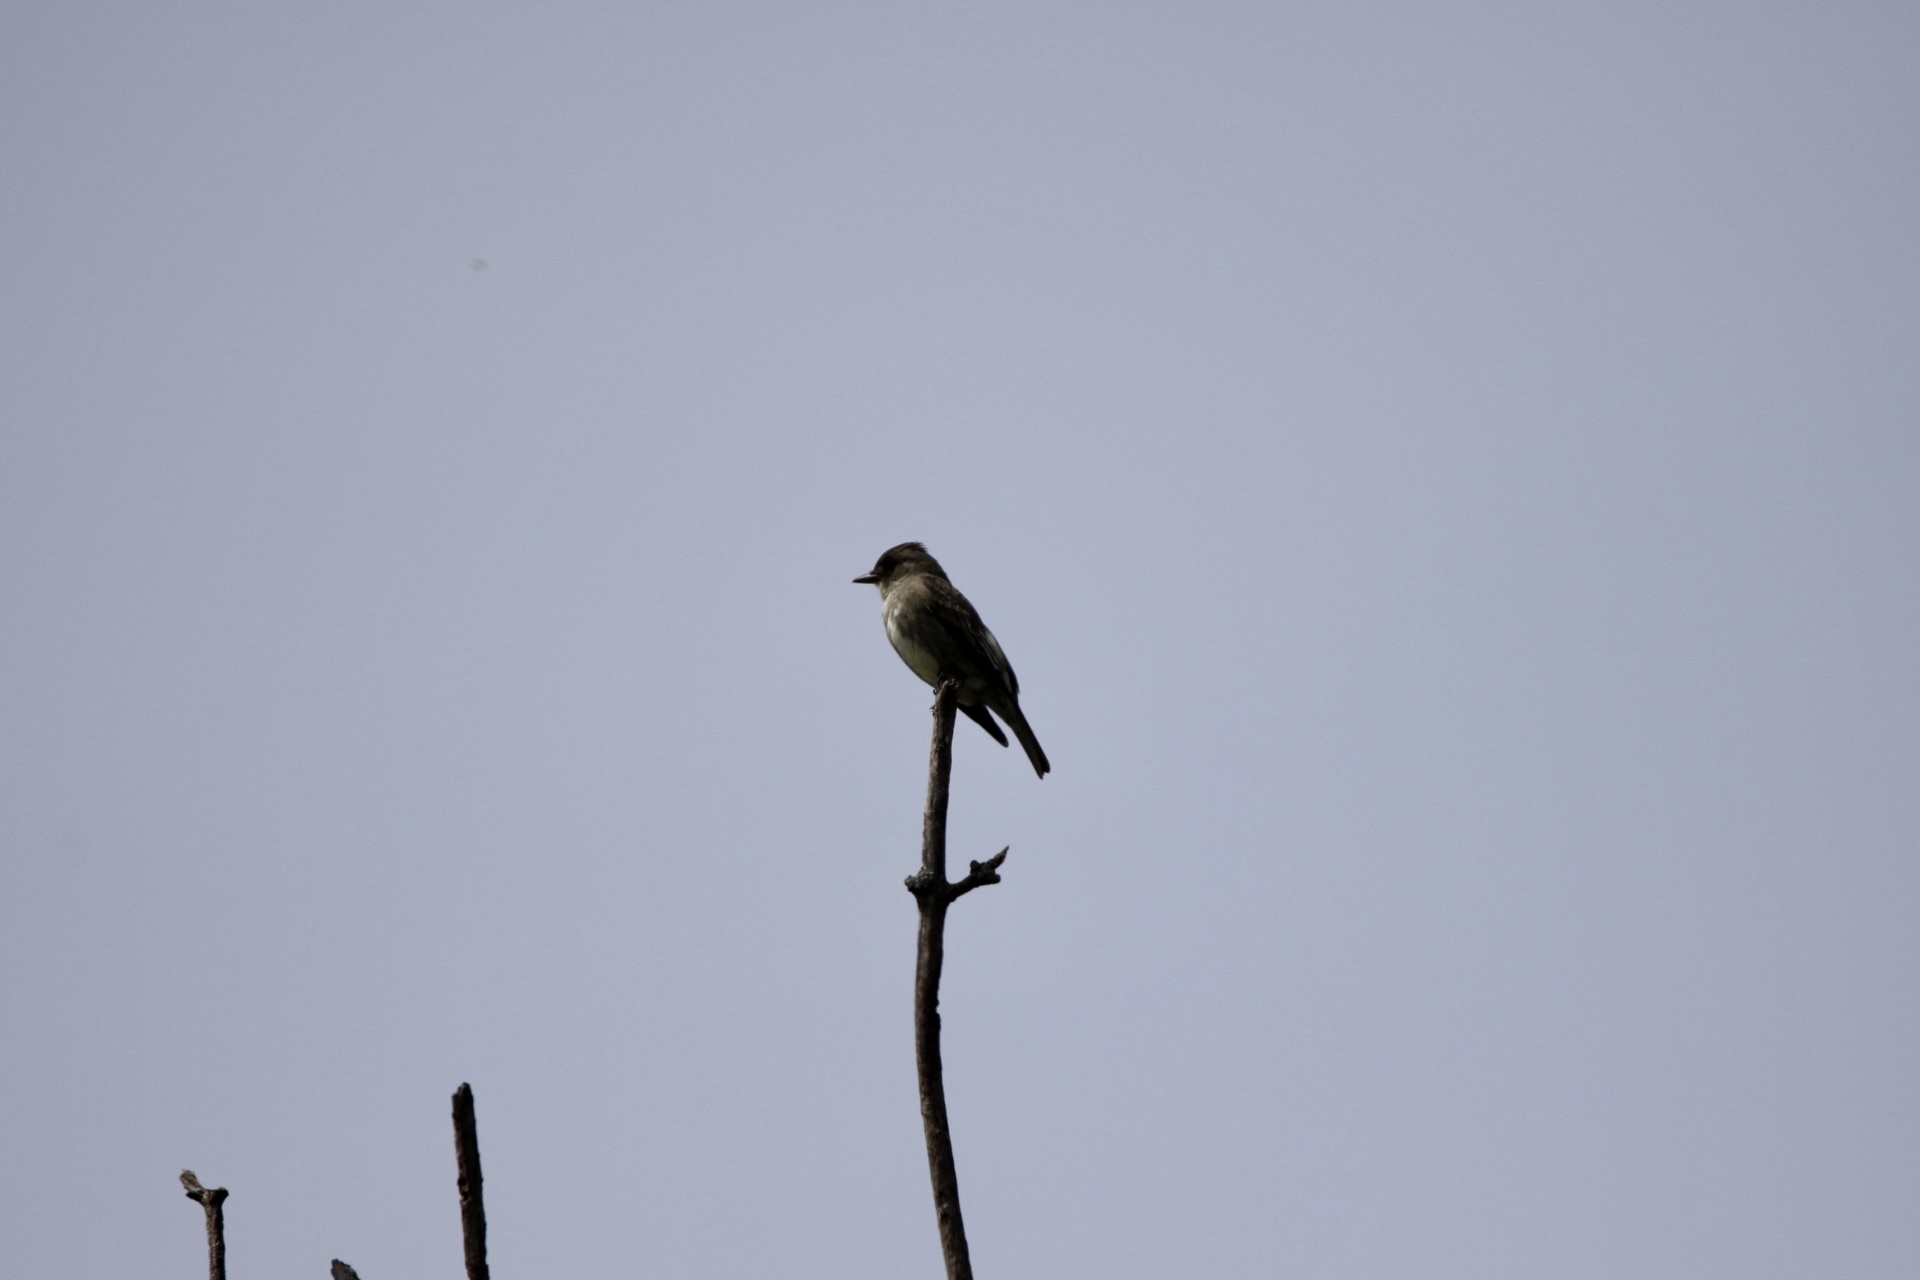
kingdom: Animalia
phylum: Chordata
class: Aves
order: Passeriformes
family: Tyrannidae
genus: Contopus
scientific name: Contopus cooperi
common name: Olive-sided flycatcher
